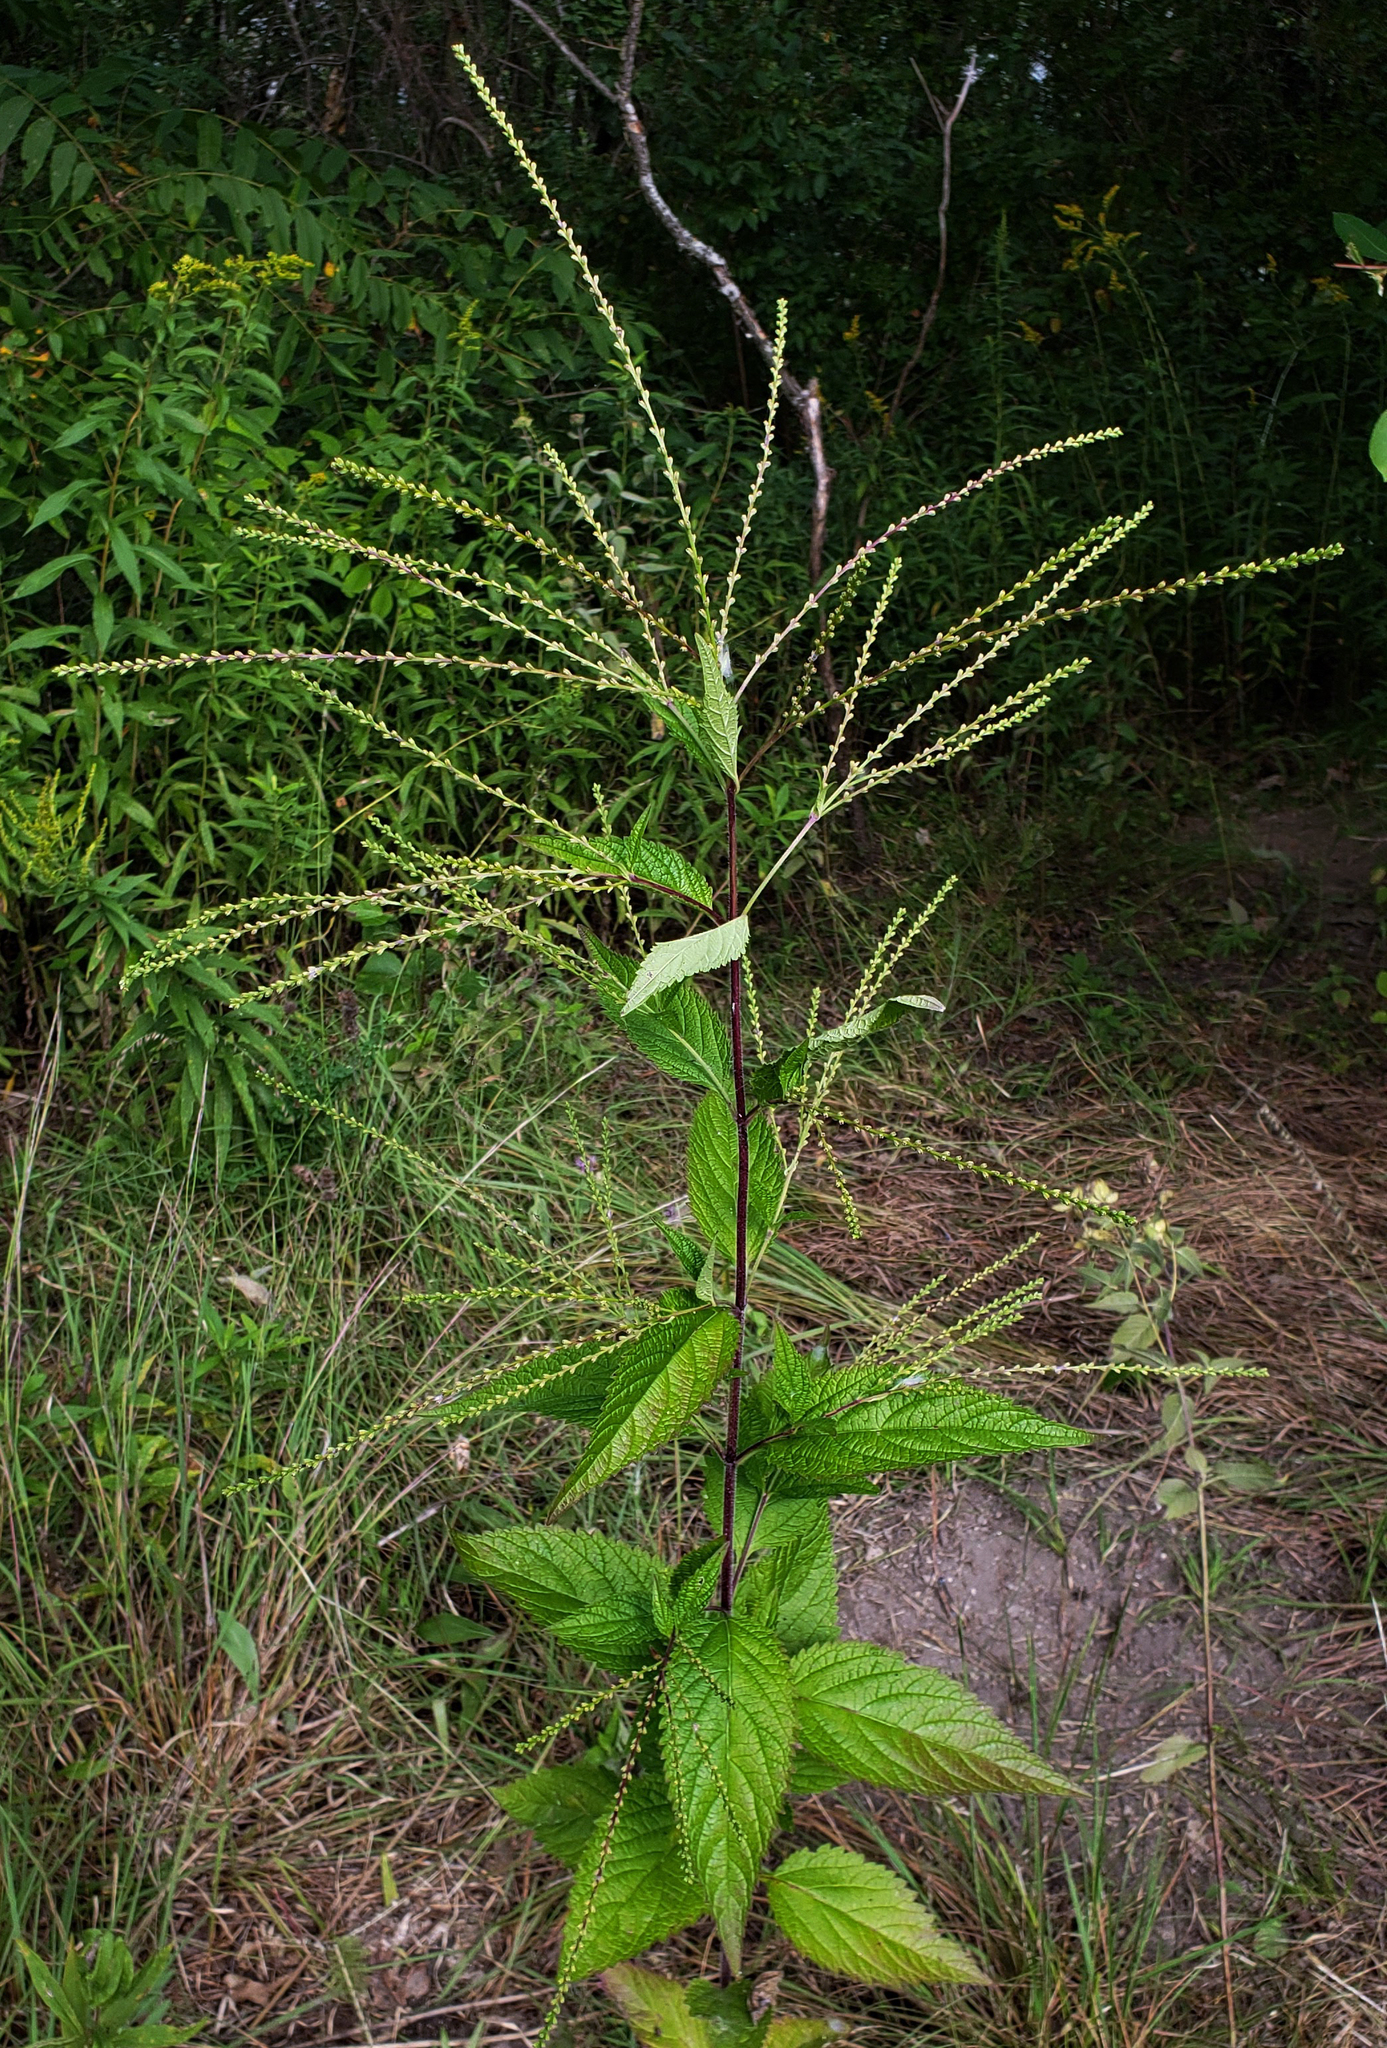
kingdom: Plantae
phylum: Tracheophyta
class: Magnoliopsida
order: Lamiales
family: Verbenaceae
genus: Verbena
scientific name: Verbena urticifolia
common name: Nettle-leaved vervain
